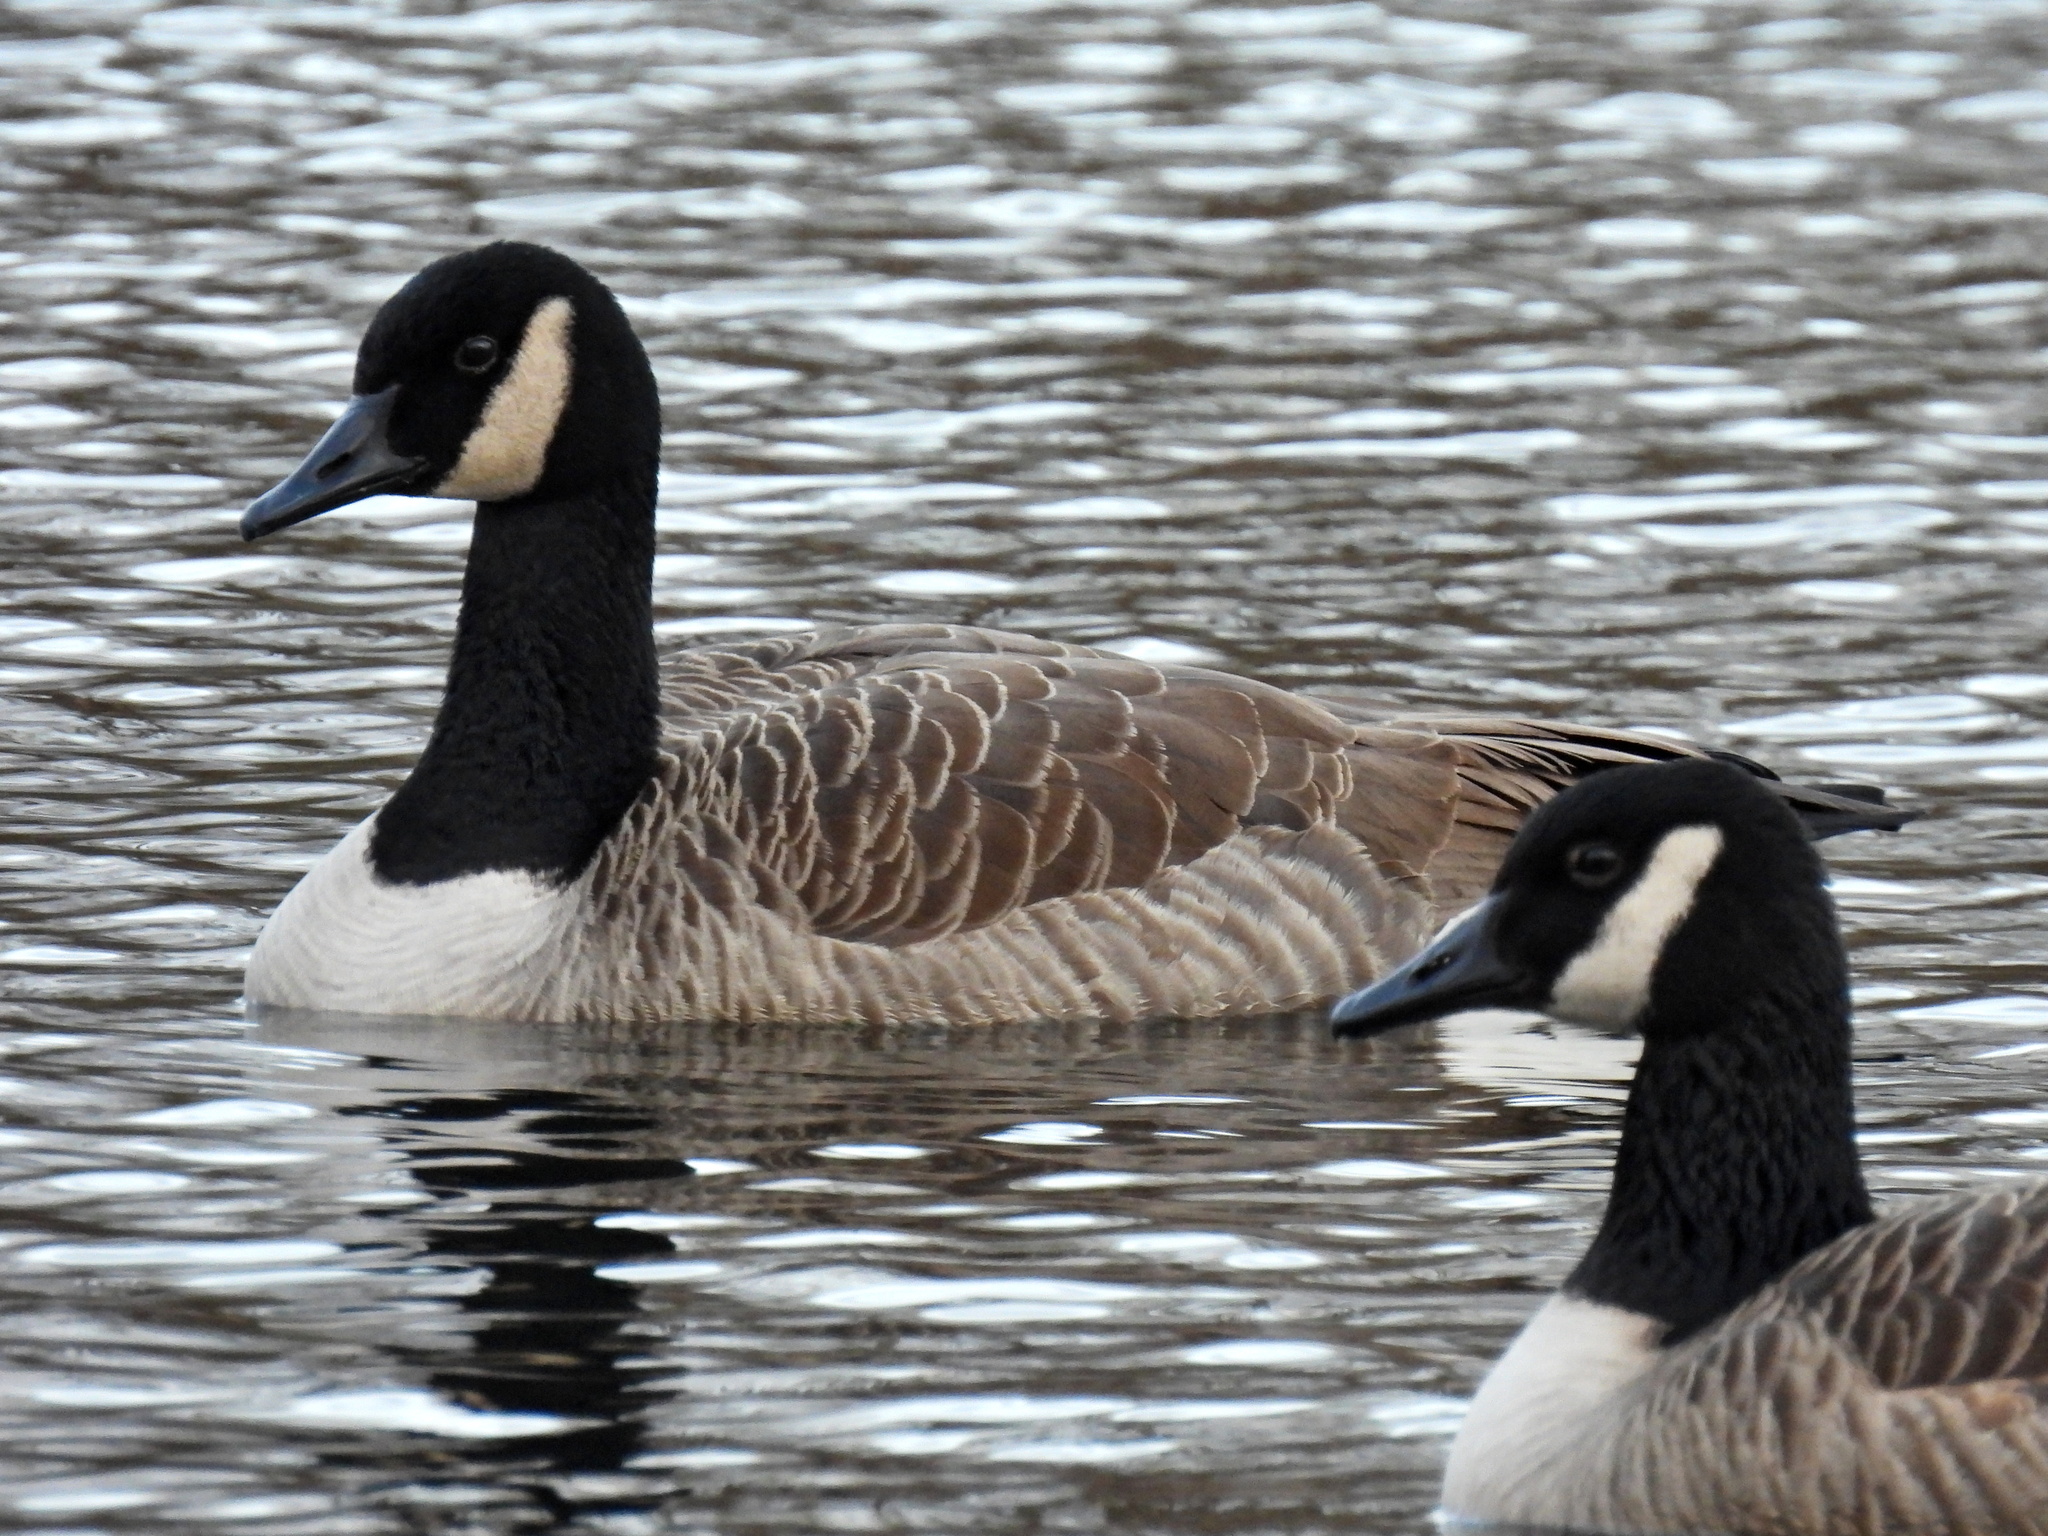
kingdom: Animalia
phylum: Chordata
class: Aves
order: Anseriformes
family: Anatidae
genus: Branta
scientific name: Branta canadensis
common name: Canada goose
